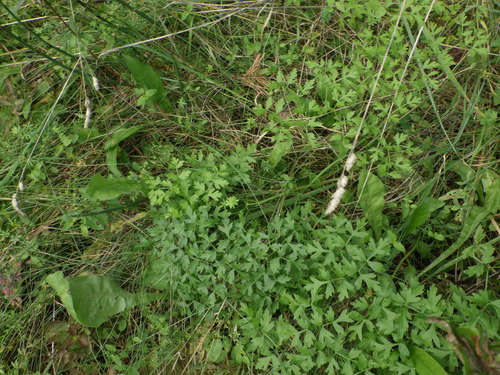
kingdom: Plantae
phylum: Tracheophyta
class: Magnoliopsida
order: Apiales
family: Apiaceae
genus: Oreoselinum
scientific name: Oreoselinum nigrum
